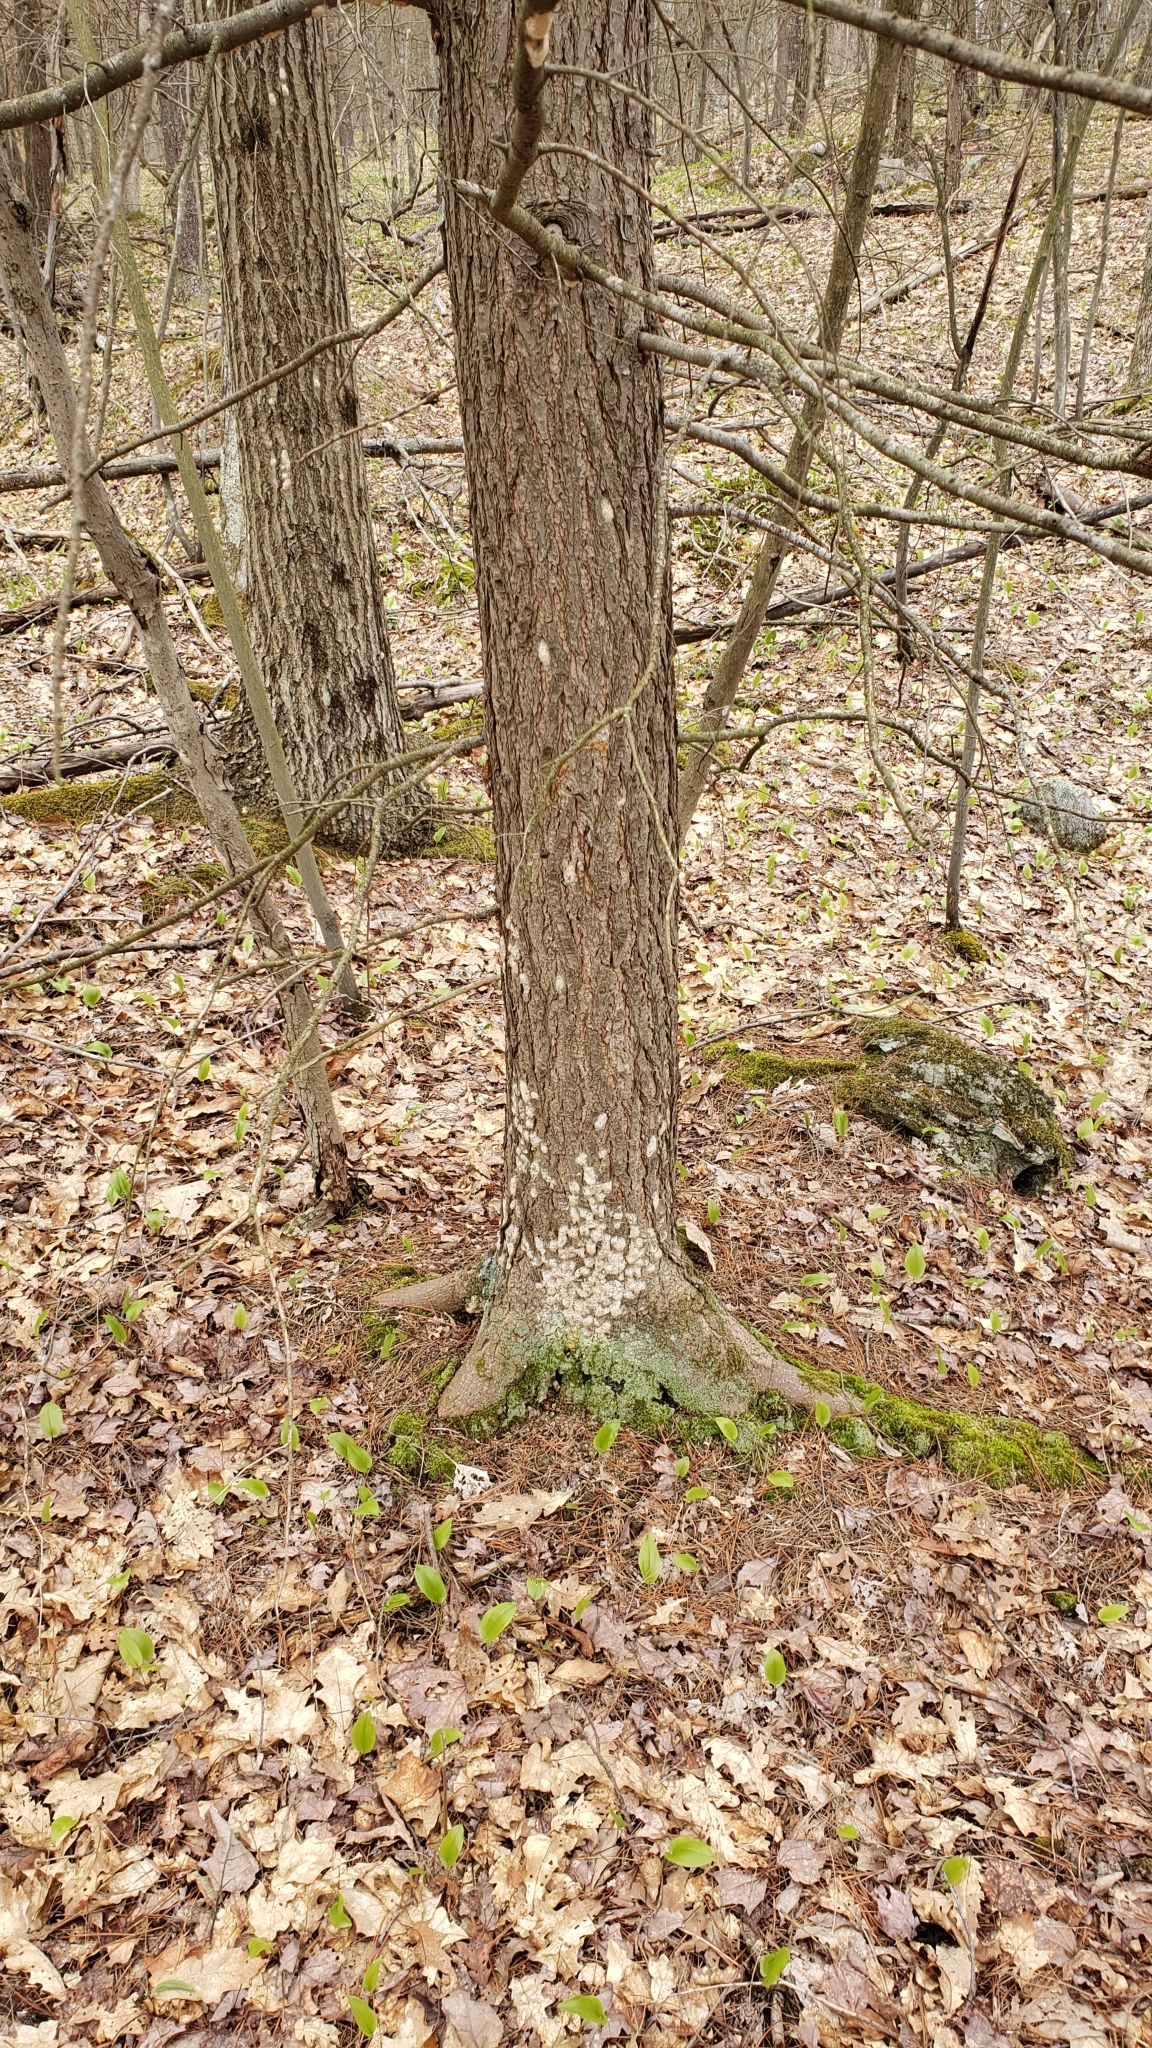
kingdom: Animalia
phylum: Arthropoda
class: Insecta
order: Lepidoptera
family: Erebidae
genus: Lymantria
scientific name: Lymantria dispar
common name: Gypsy moth
